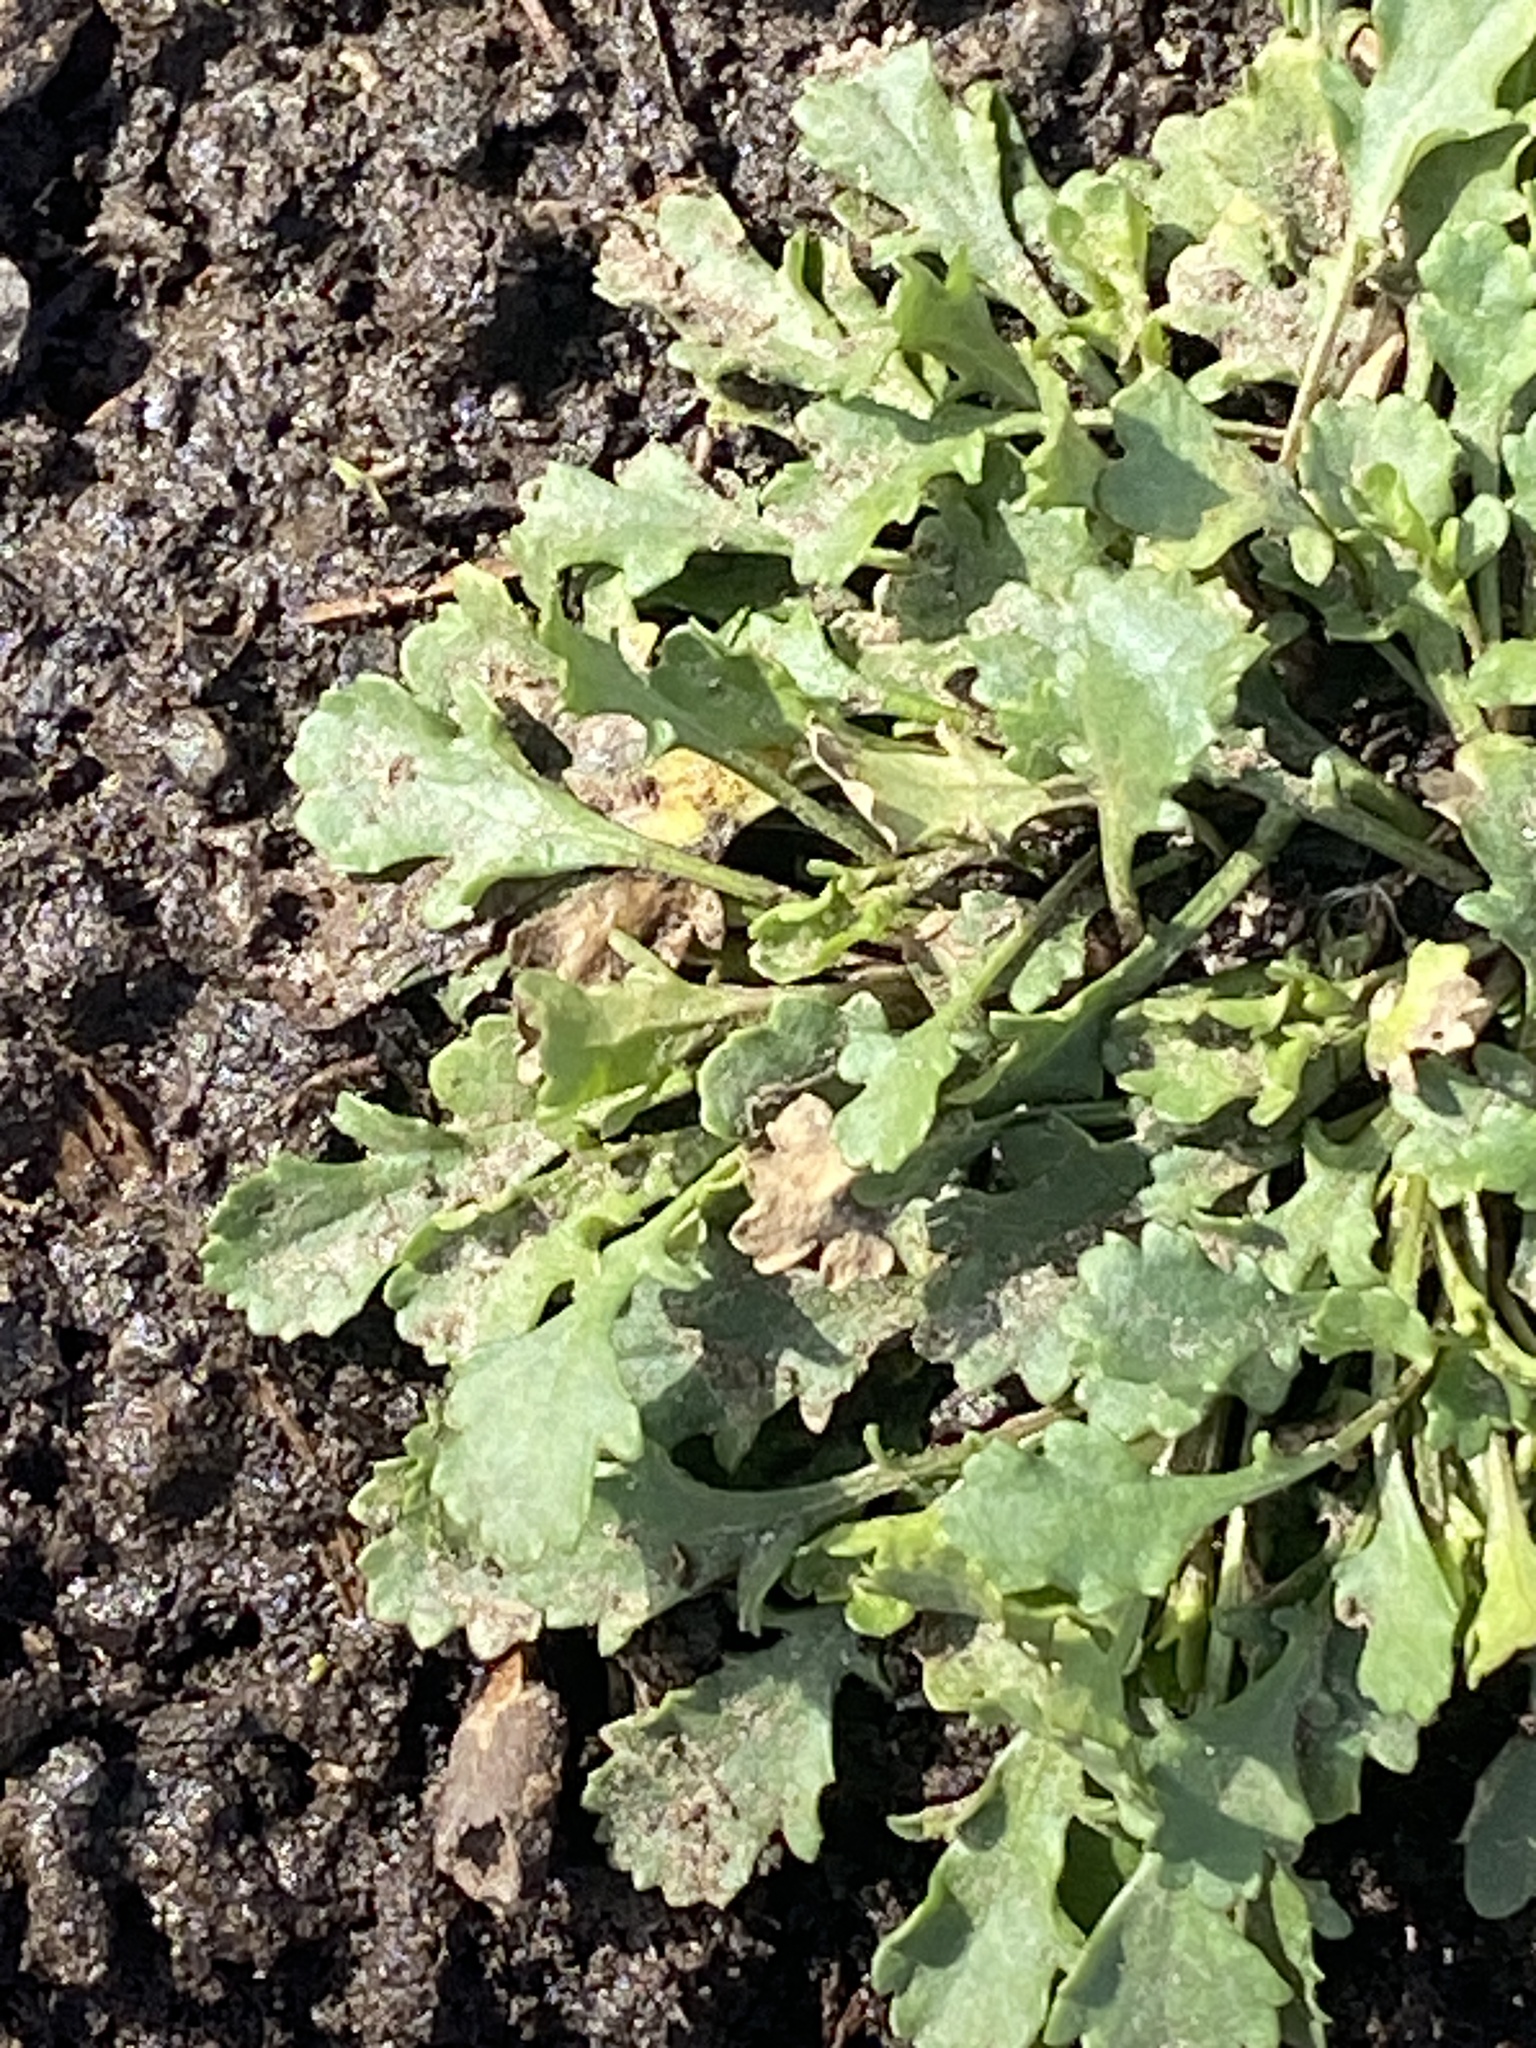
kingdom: Plantae
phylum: Tracheophyta
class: Magnoliopsida
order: Asterales
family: Asteraceae
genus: Leucanthemum
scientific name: Leucanthemum vulgare
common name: Oxeye daisy
